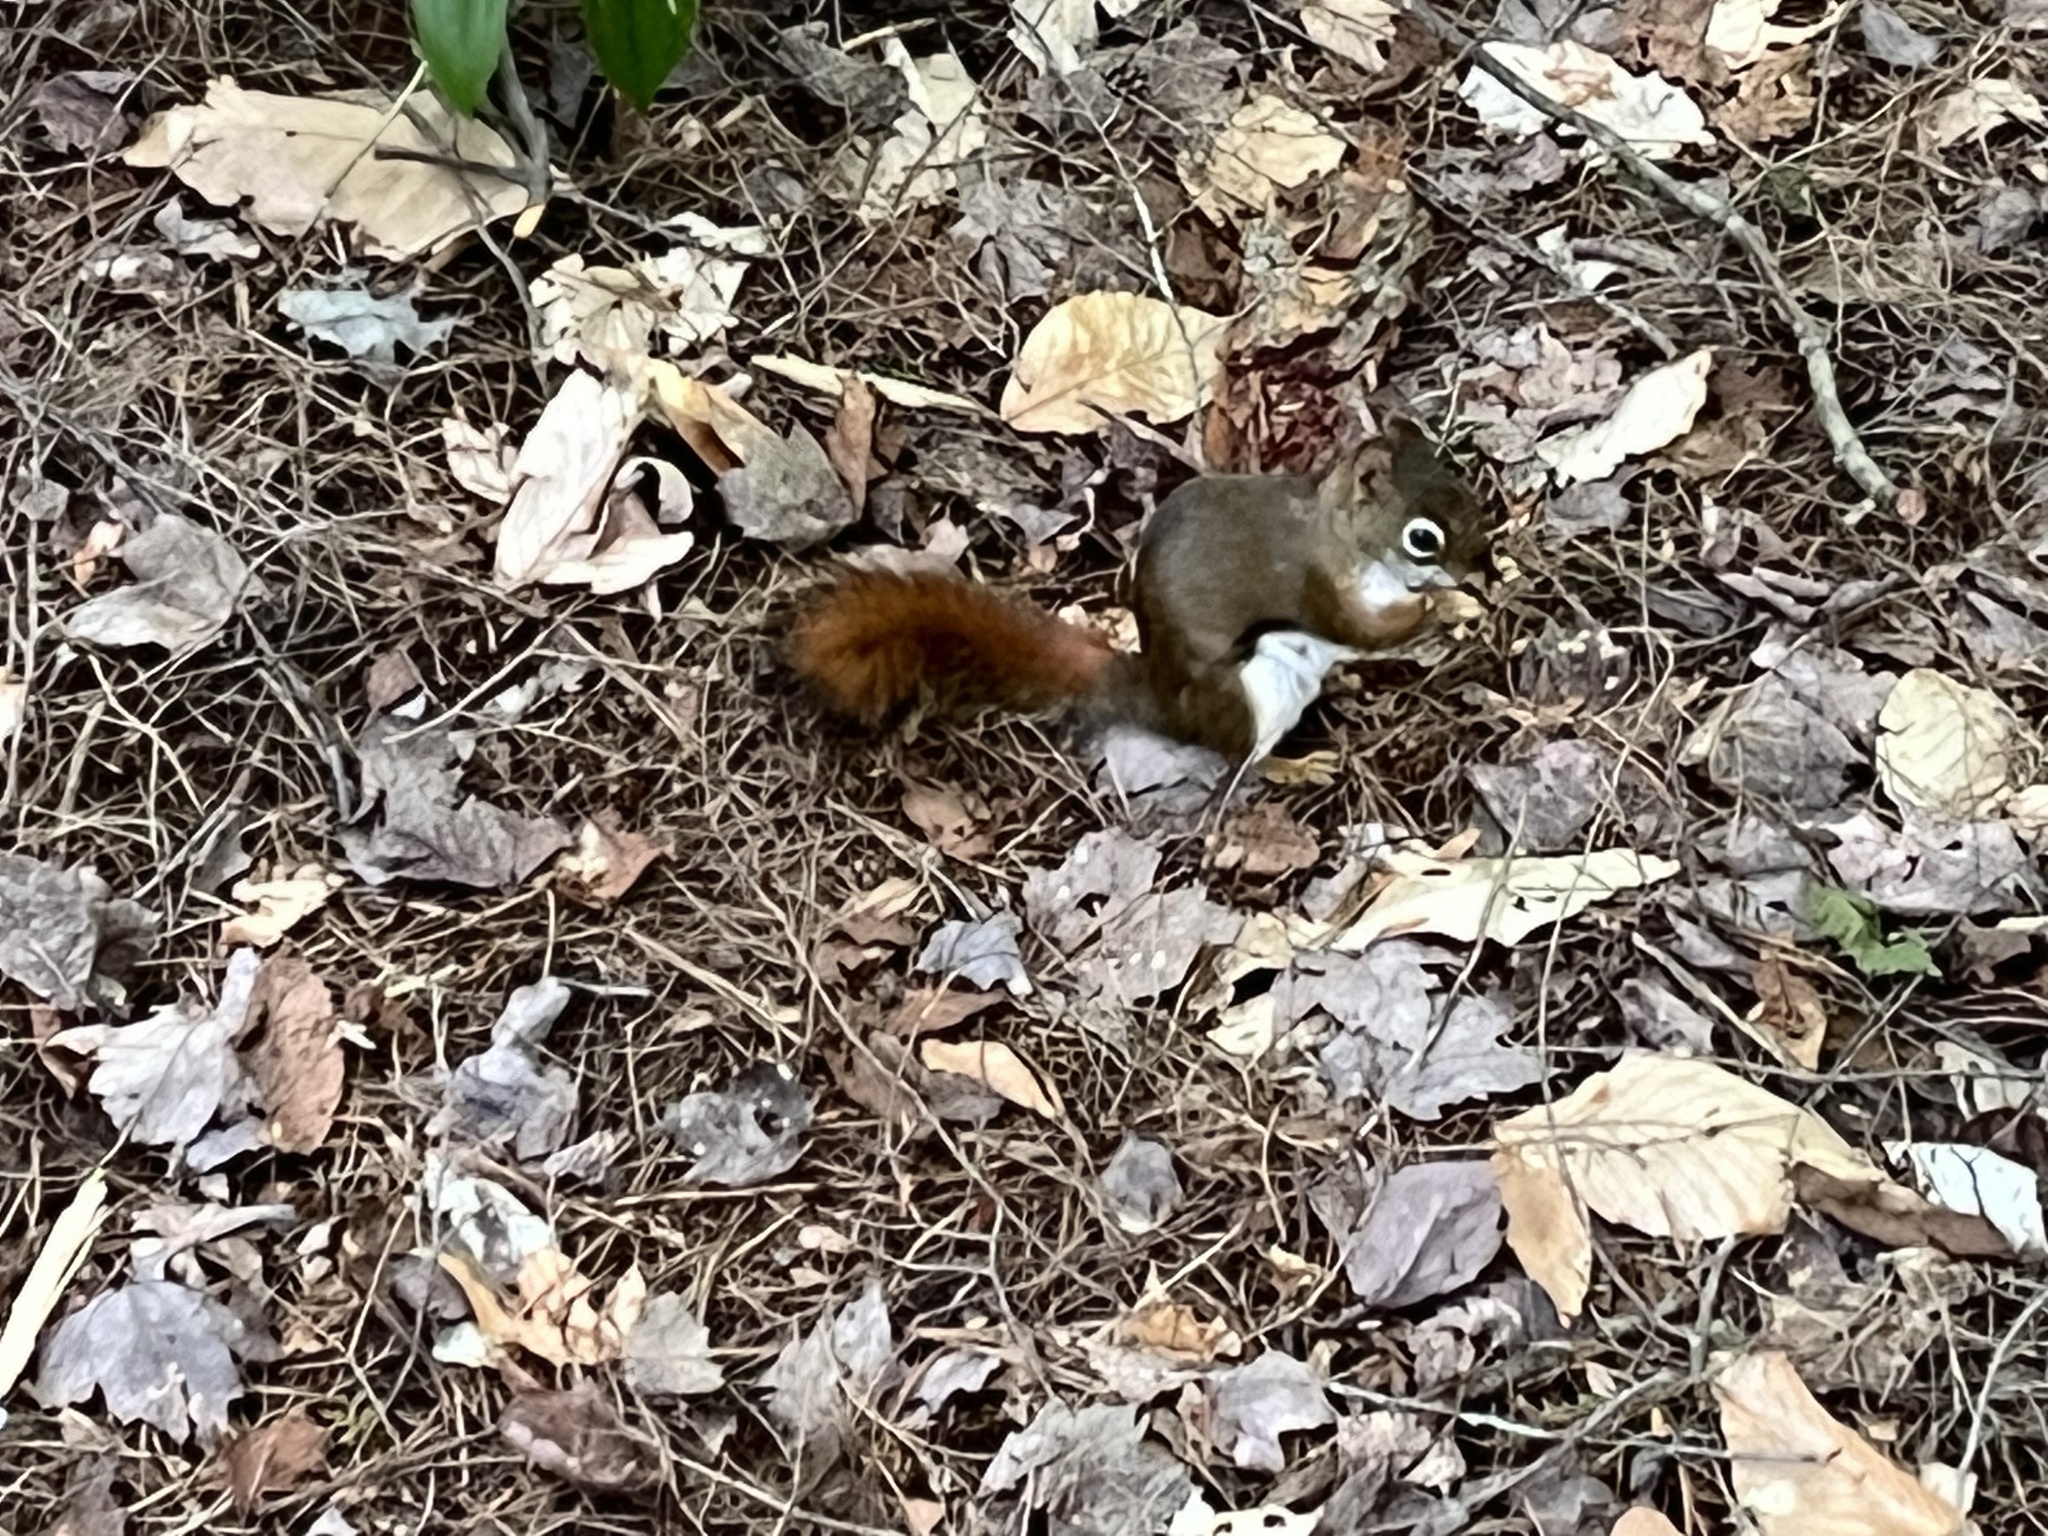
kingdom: Animalia
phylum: Chordata
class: Mammalia
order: Rodentia
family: Sciuridae
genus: Tamiasciurus
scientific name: Tamiasciurus hudsonicus
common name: Red squirrel
